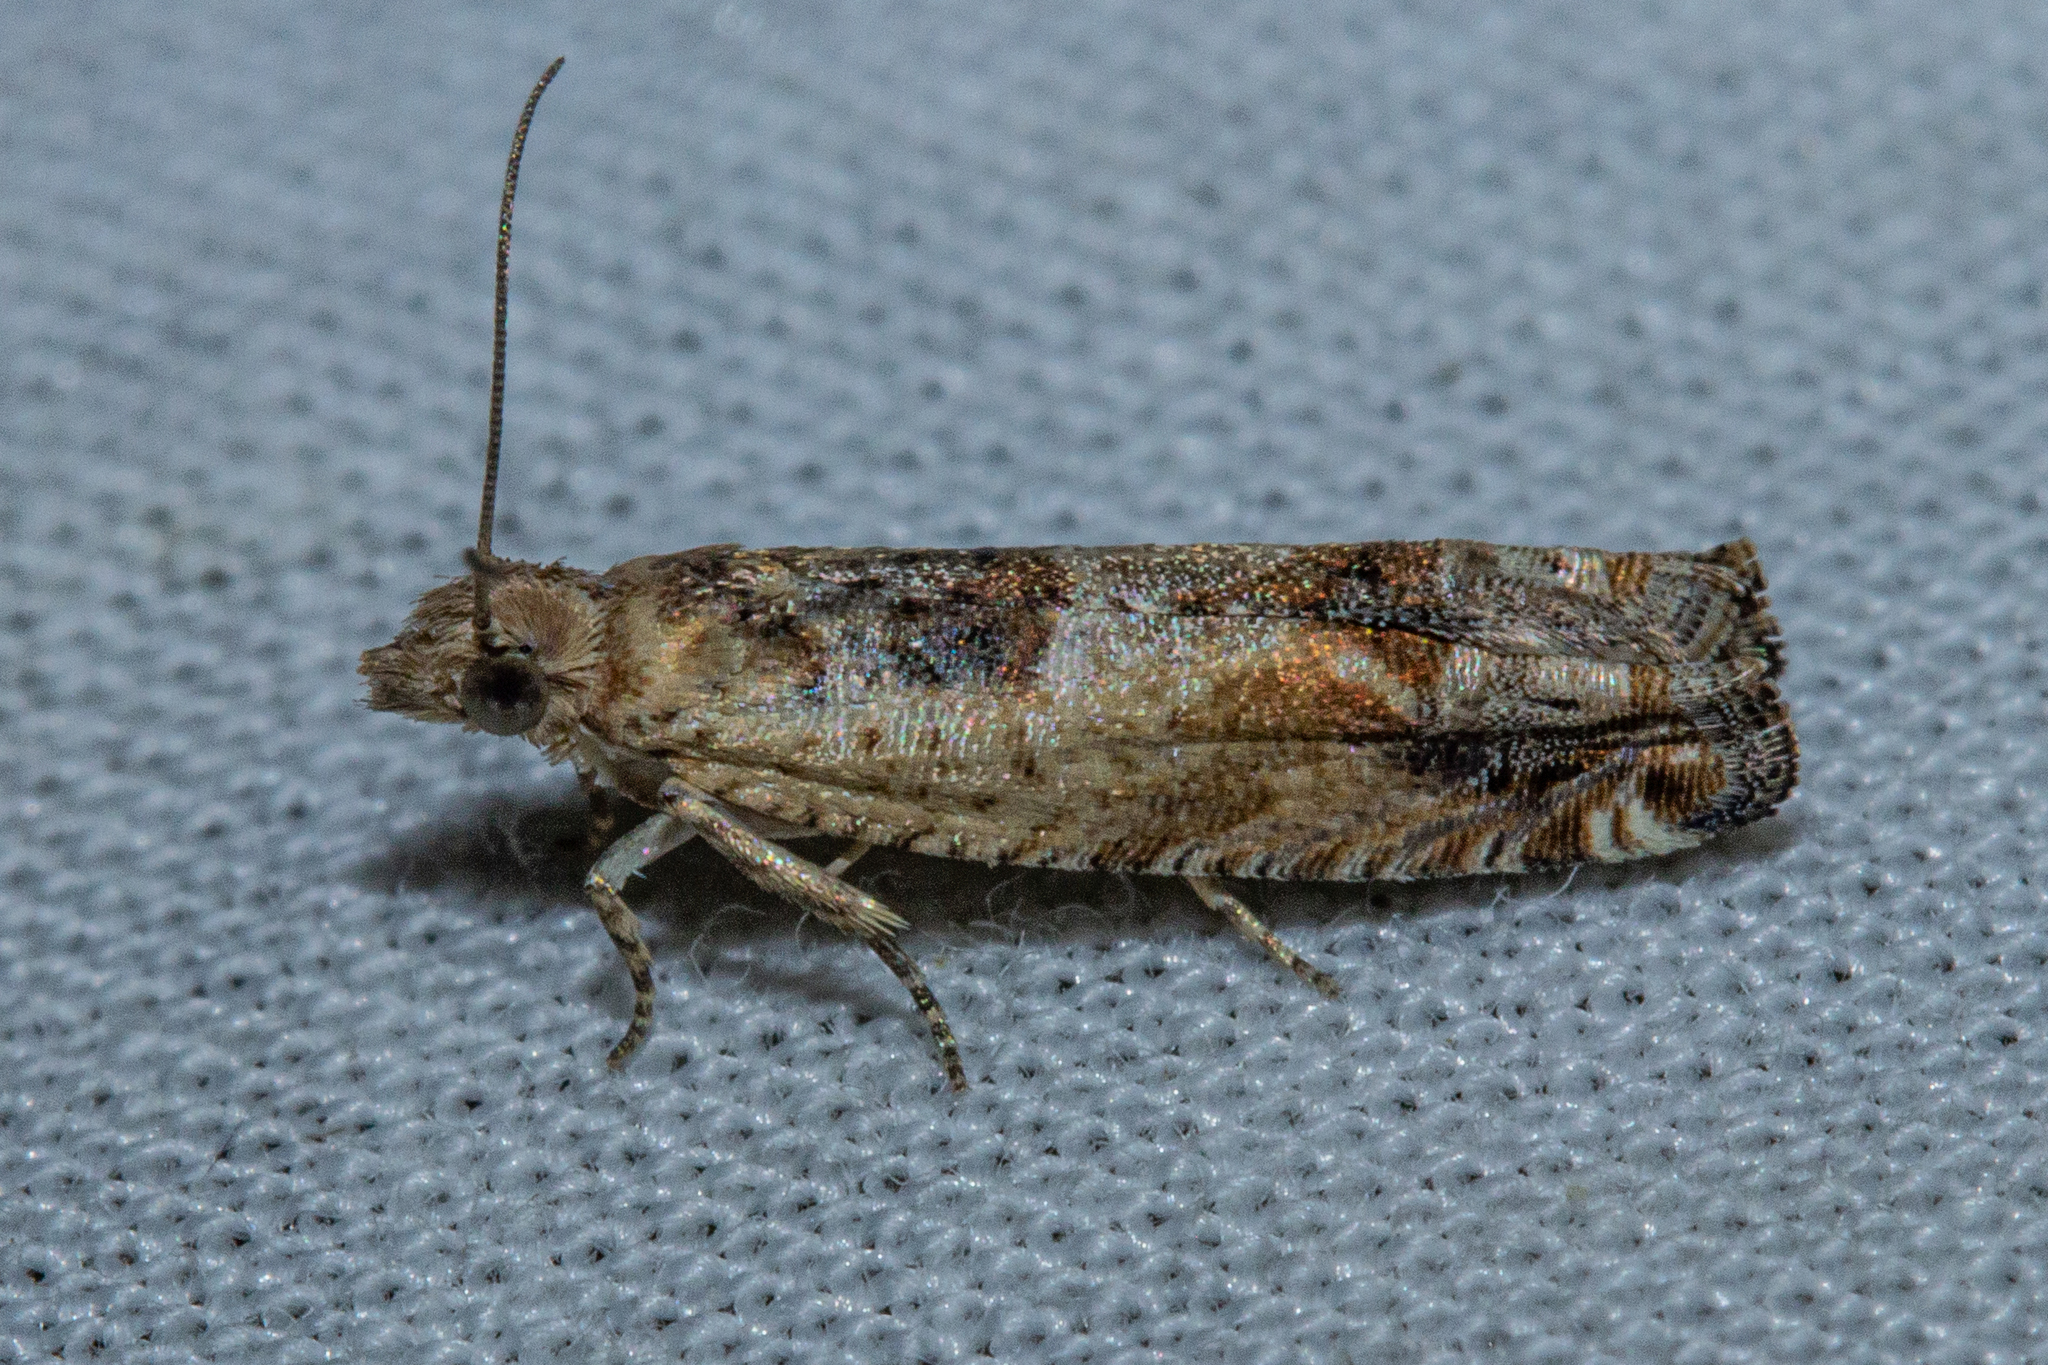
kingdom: Animalia
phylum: Arthropoda
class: Insecta
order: Lepidoptera
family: Tortricidae
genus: Crocidosema
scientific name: Crocidosema plebejana
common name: Southern bell
